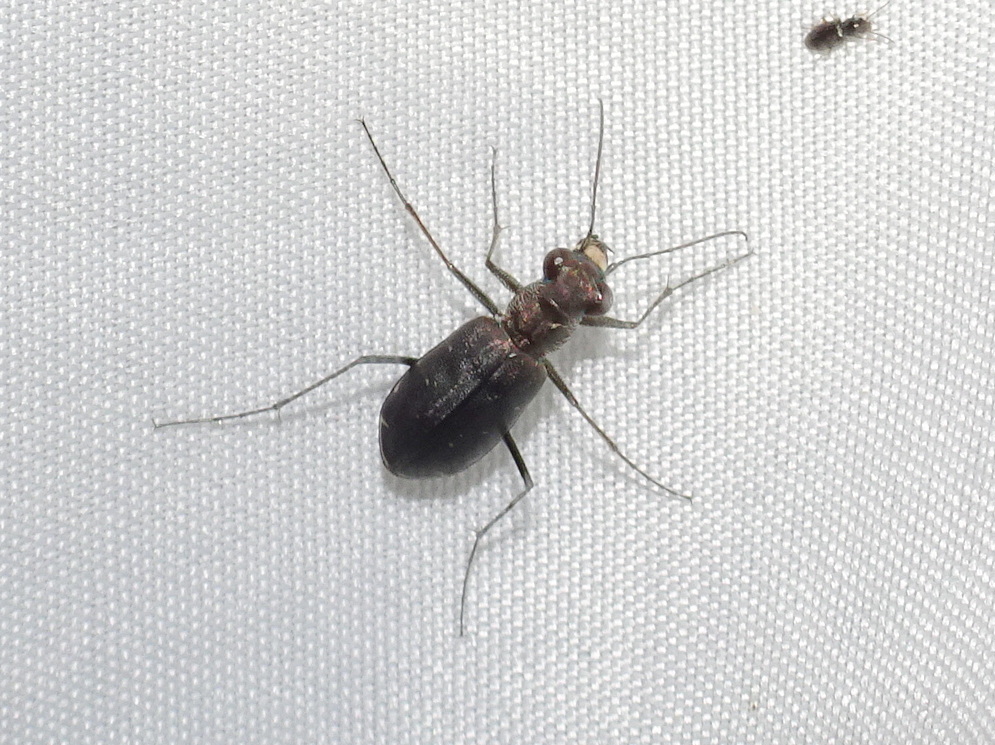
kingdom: Animalia
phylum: Arthropoda
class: Insecta
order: Coleoptera
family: Carabidae
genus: Cicindela
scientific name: Cicindela punctulata
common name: Punctured tiger beetle
